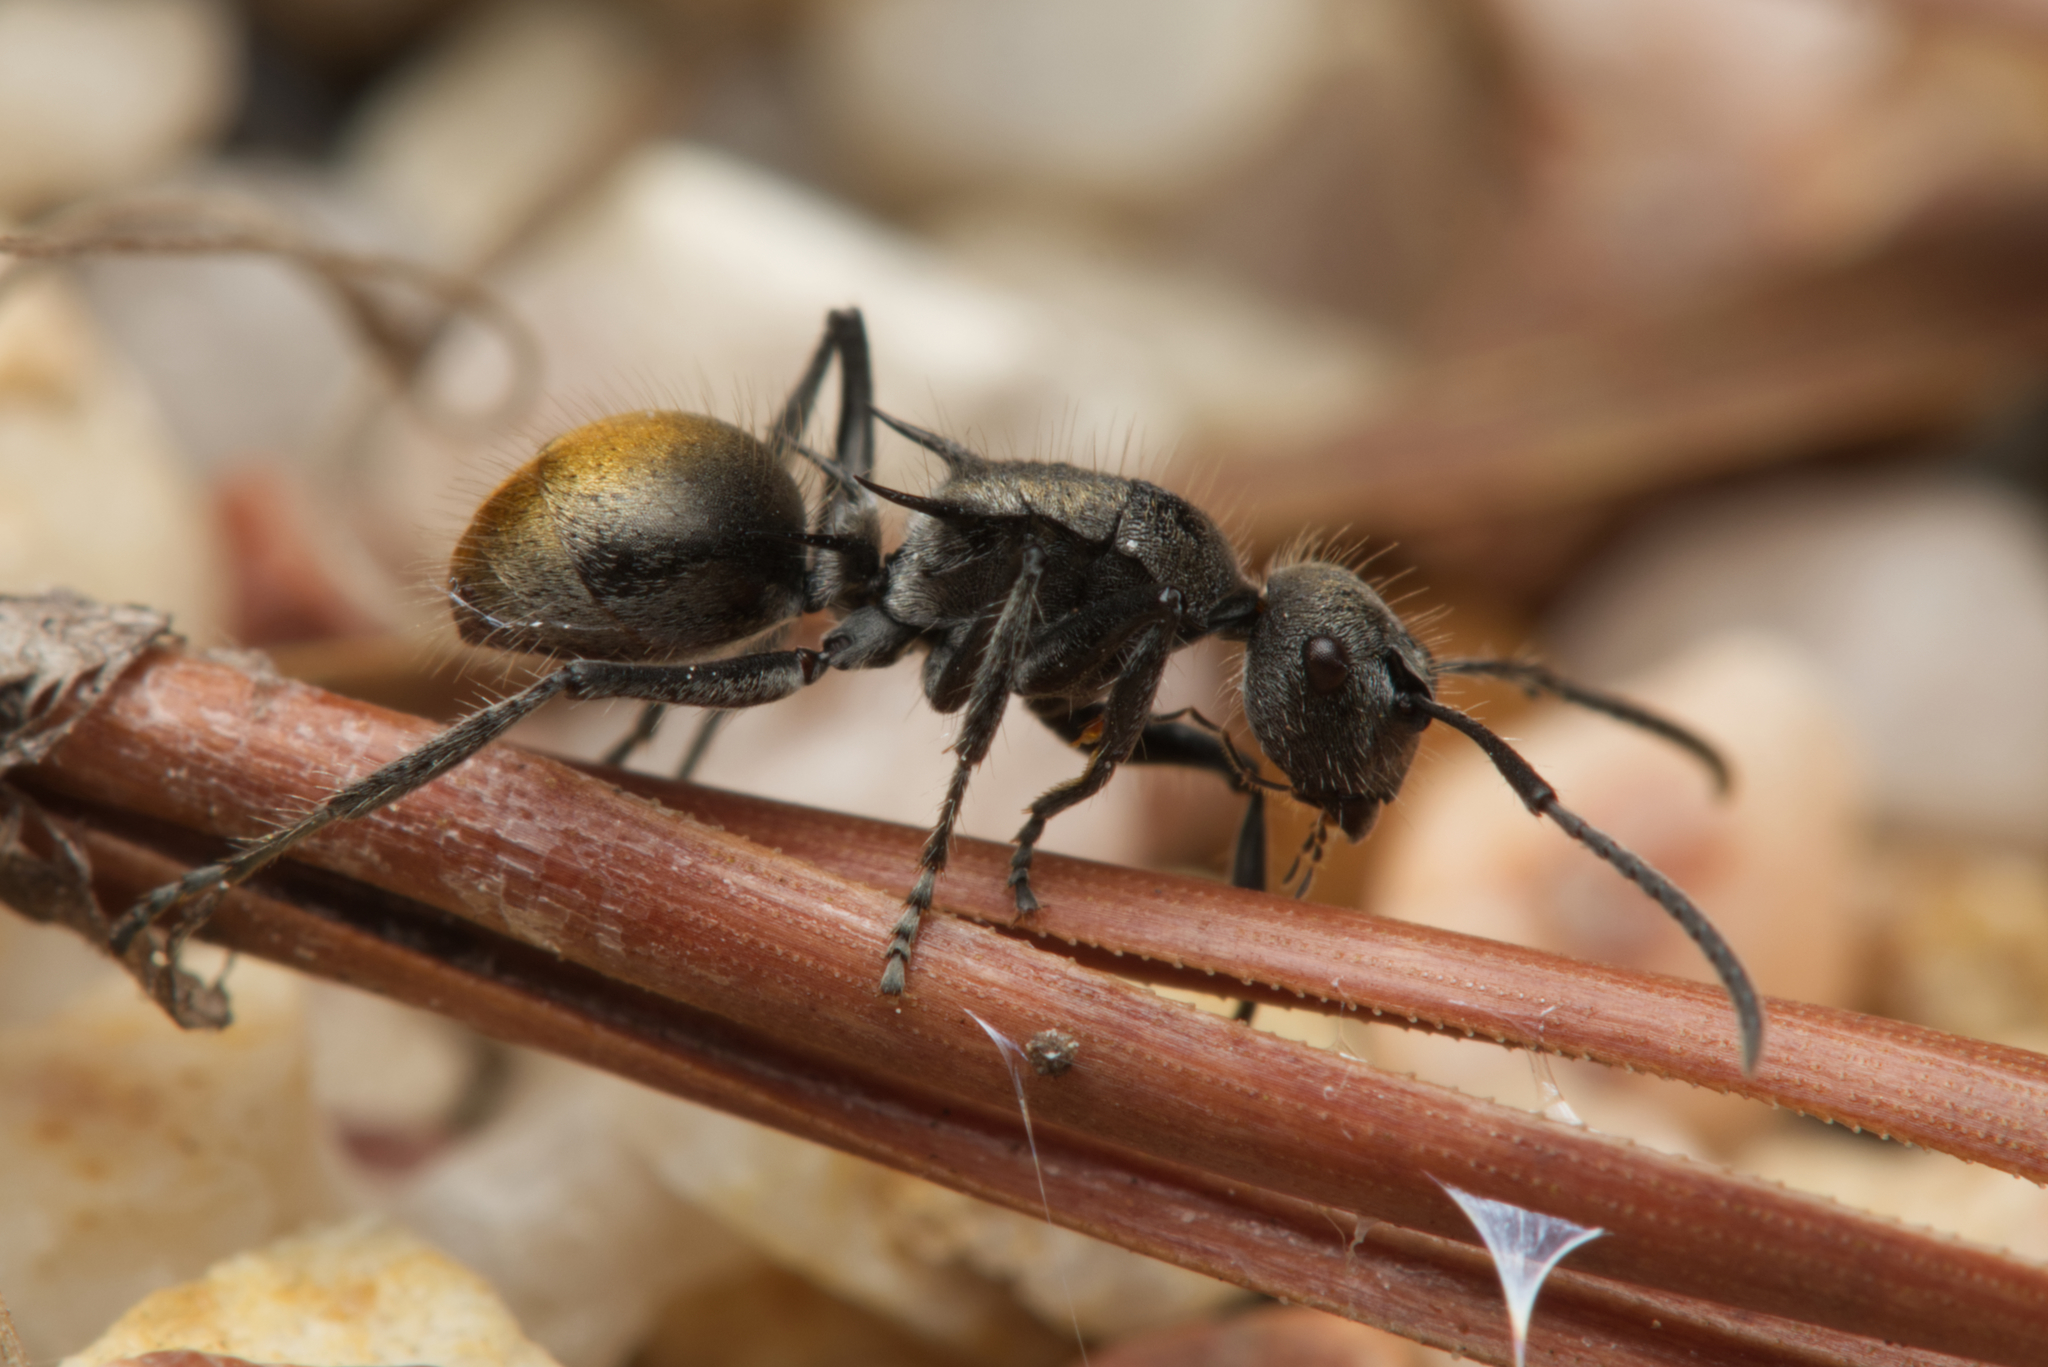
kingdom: Animalia
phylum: Arthropoda
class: Insecta
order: Hymenoptera
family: Formicidae
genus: Polyrhachis
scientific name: Polyrhachis vermiculosa
